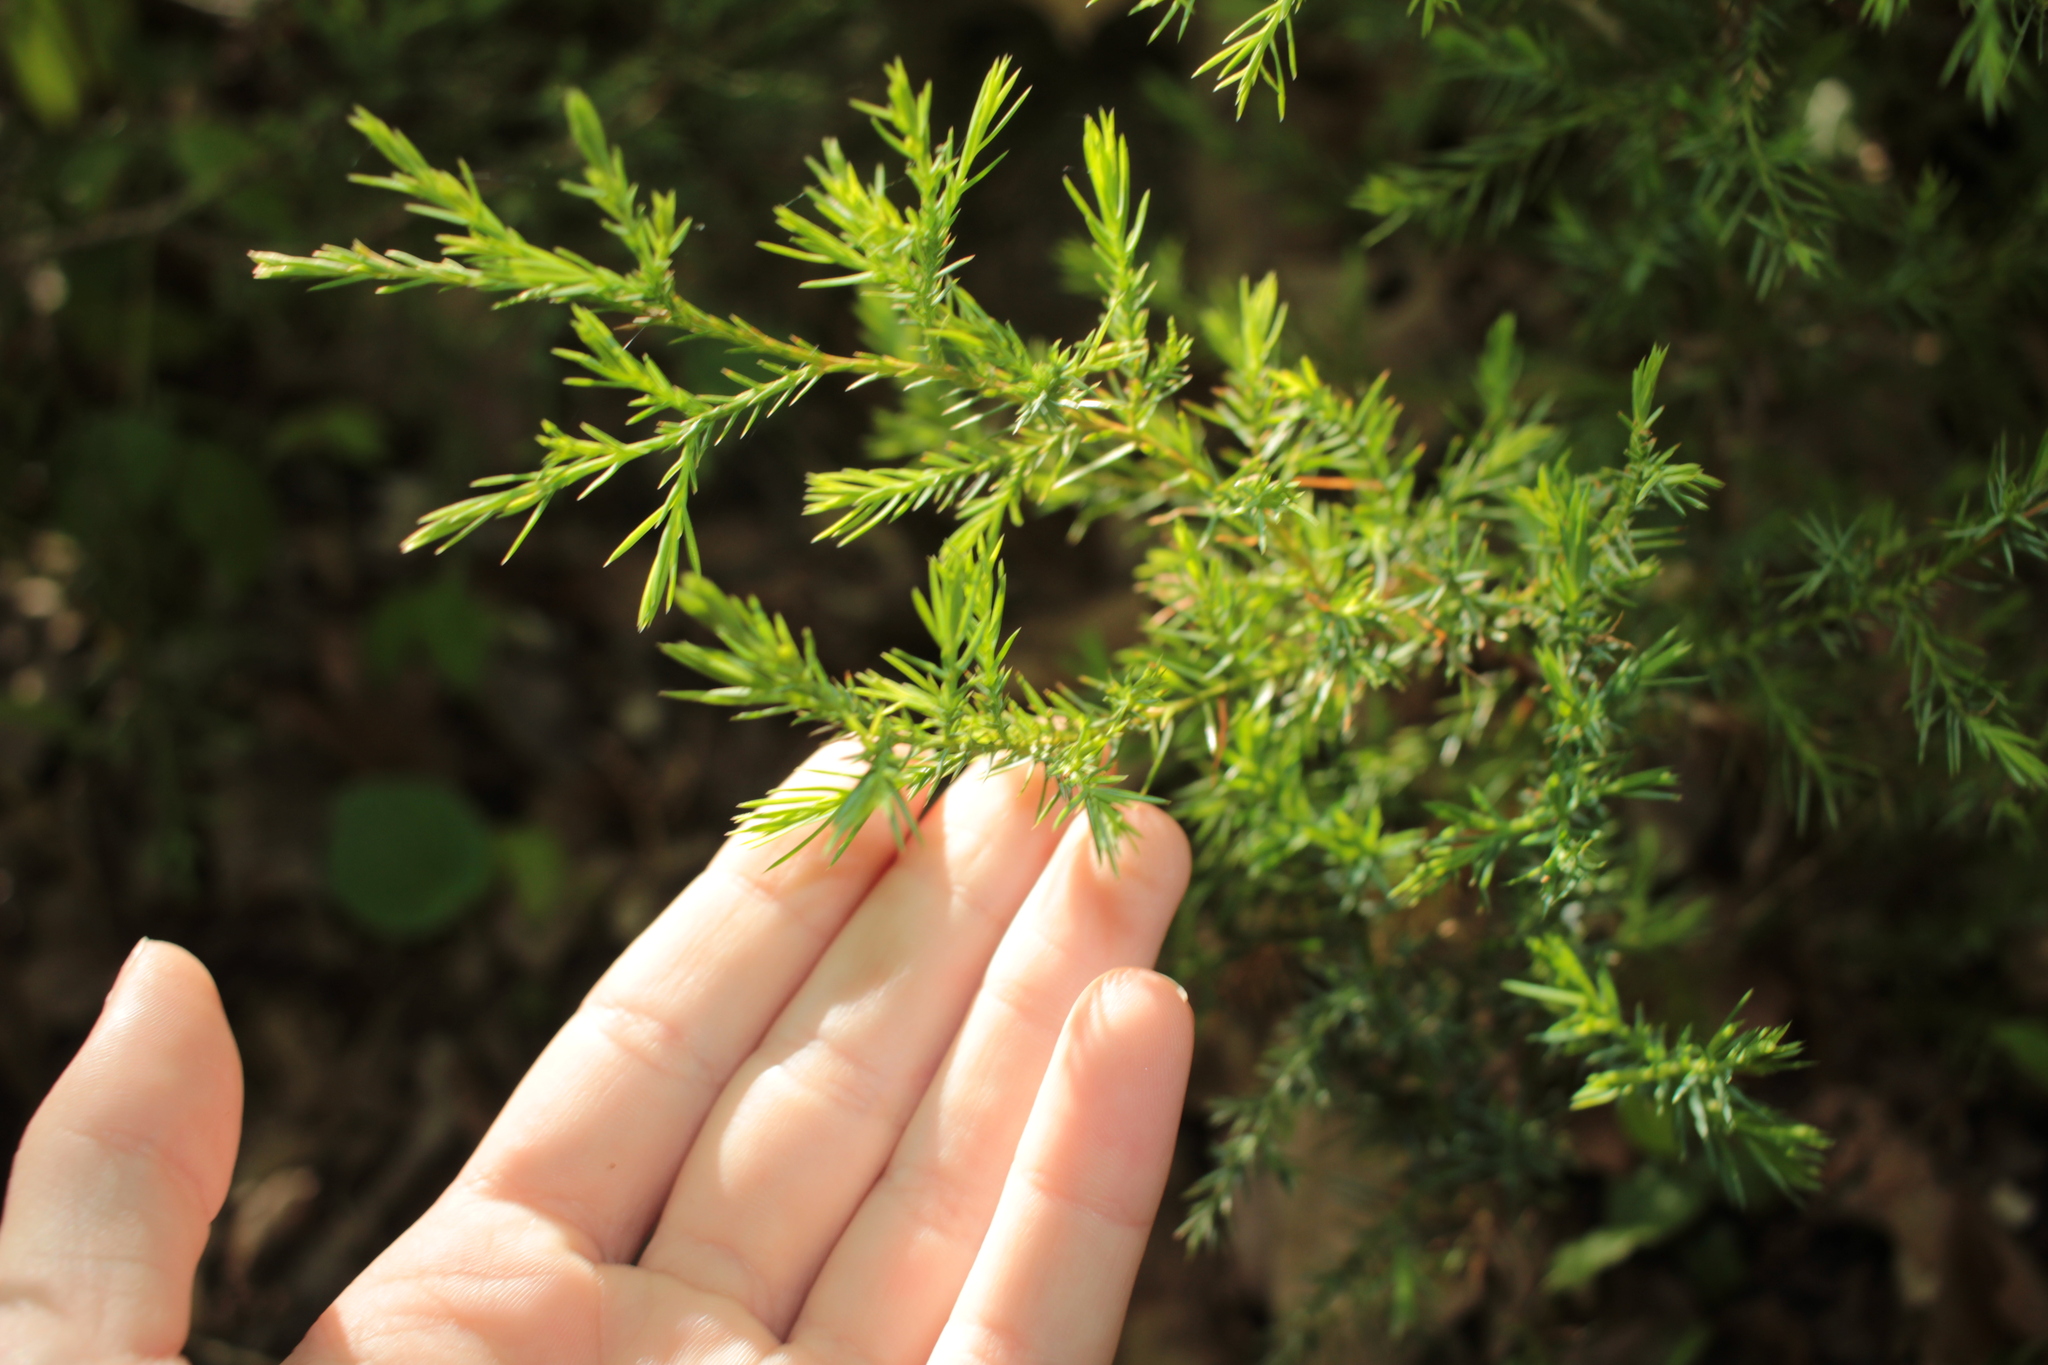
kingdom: Plantae
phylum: Tracheophyta
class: Pinopsida
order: Pinales
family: Cupressaceae
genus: Juniperus
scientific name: Juniperus virginiana
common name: Red juniper
